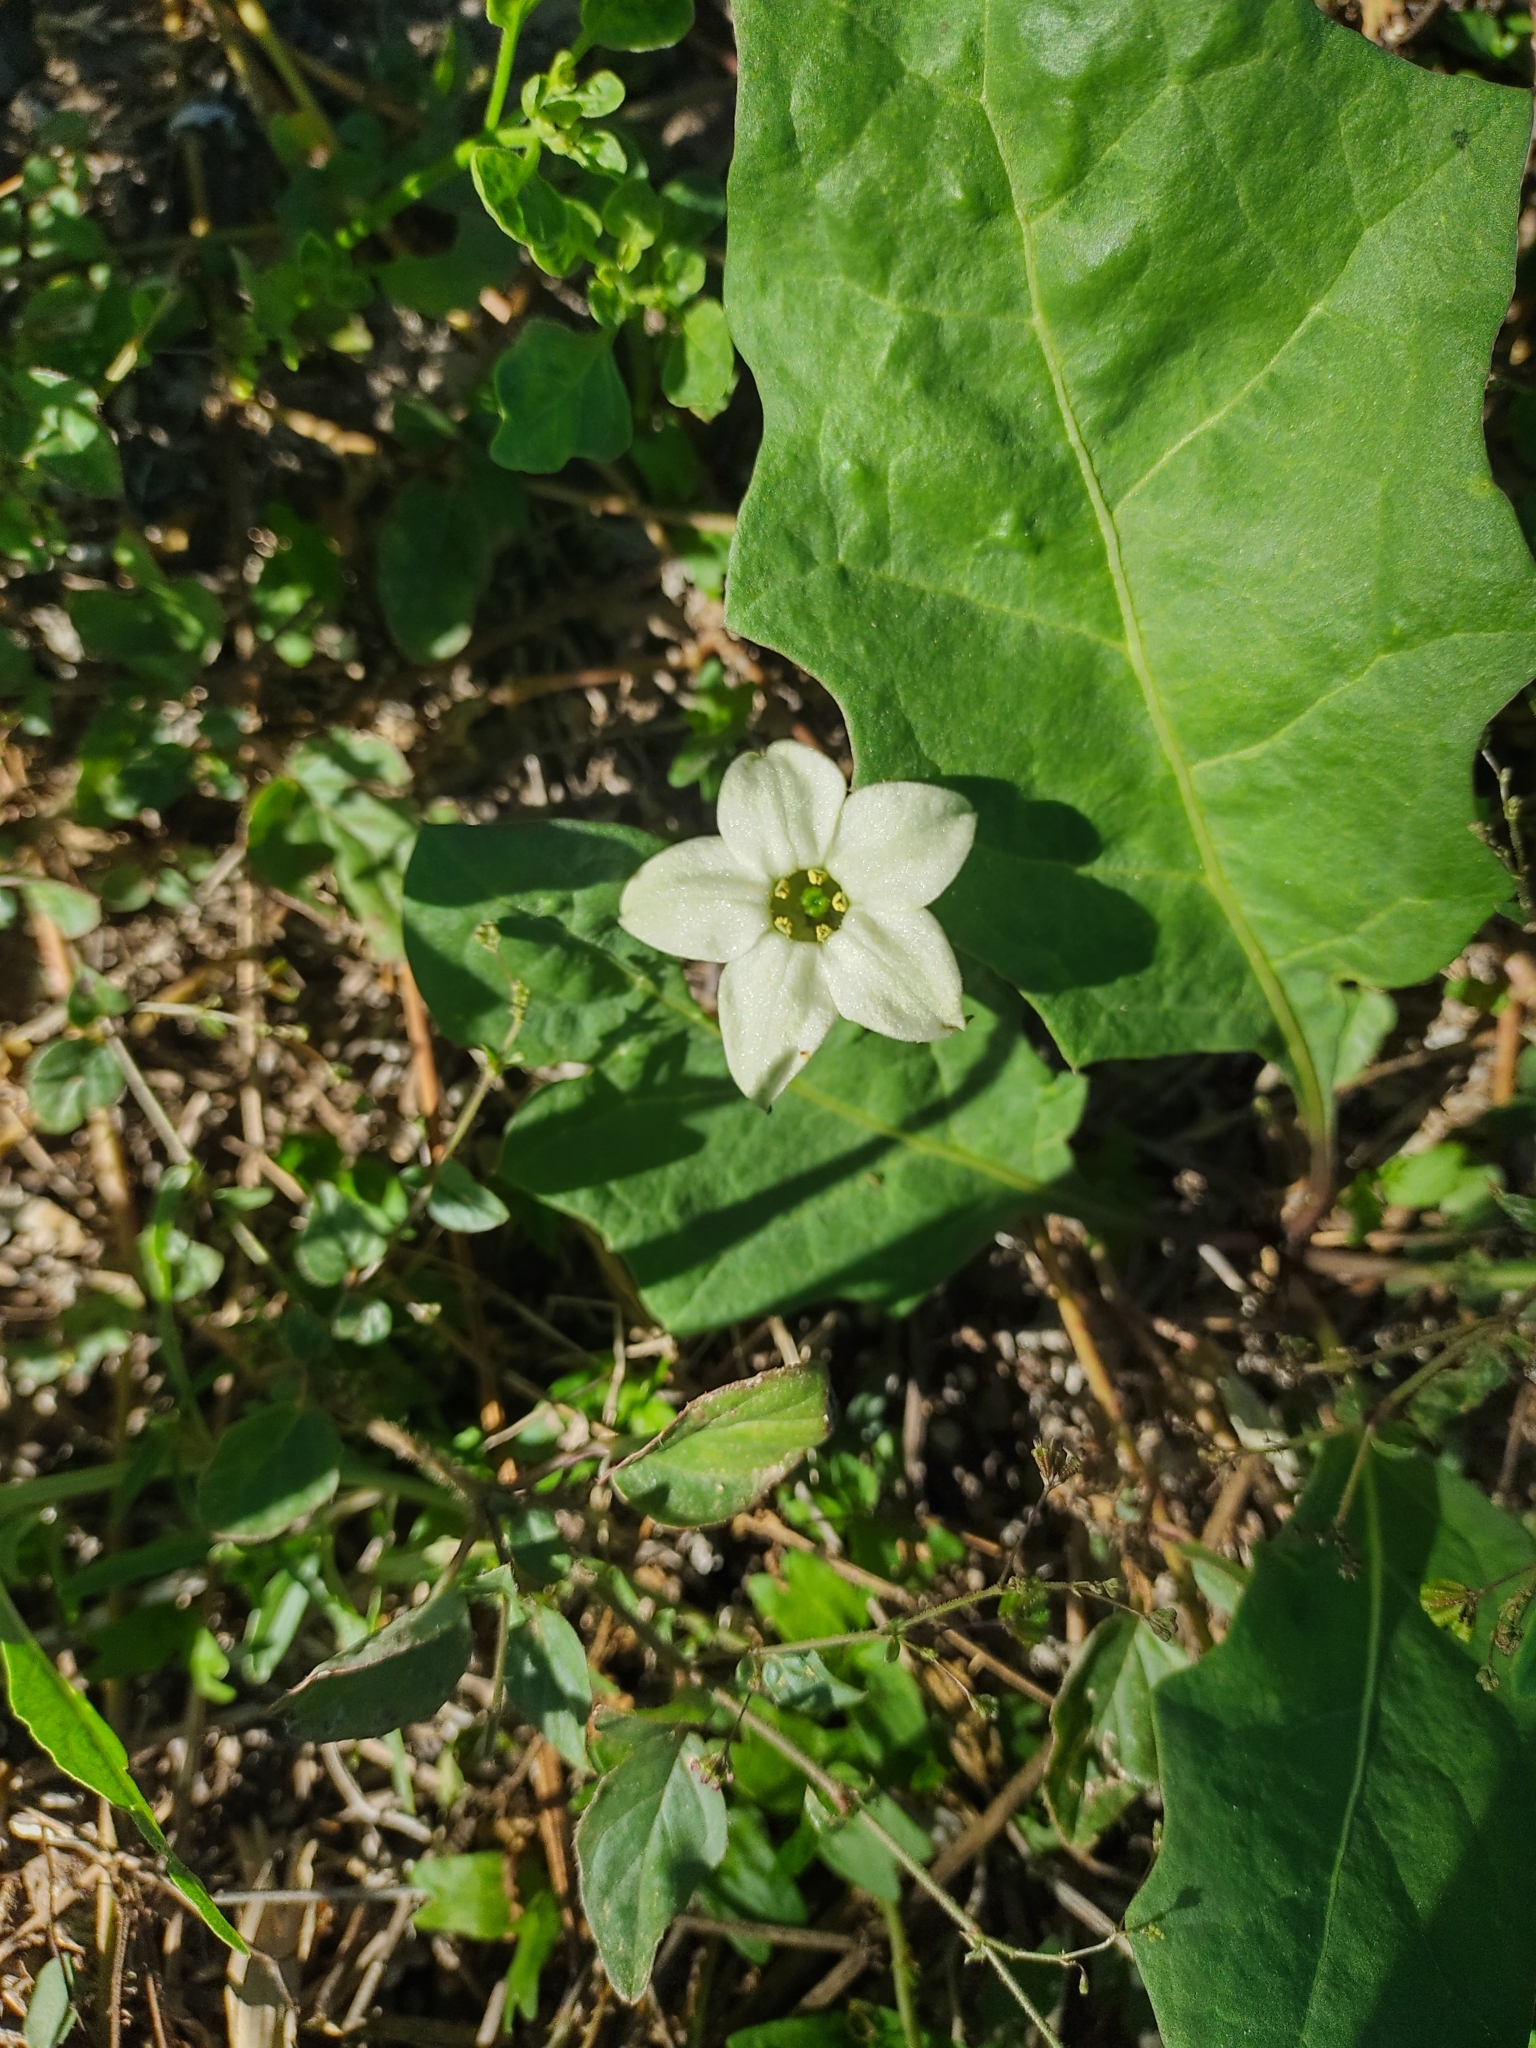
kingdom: Plantae
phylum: Tracheophyta
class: Magnoliopsida
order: Solanales
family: Solanaceae
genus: Jaborosa
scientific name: Jaborosa runcinata
